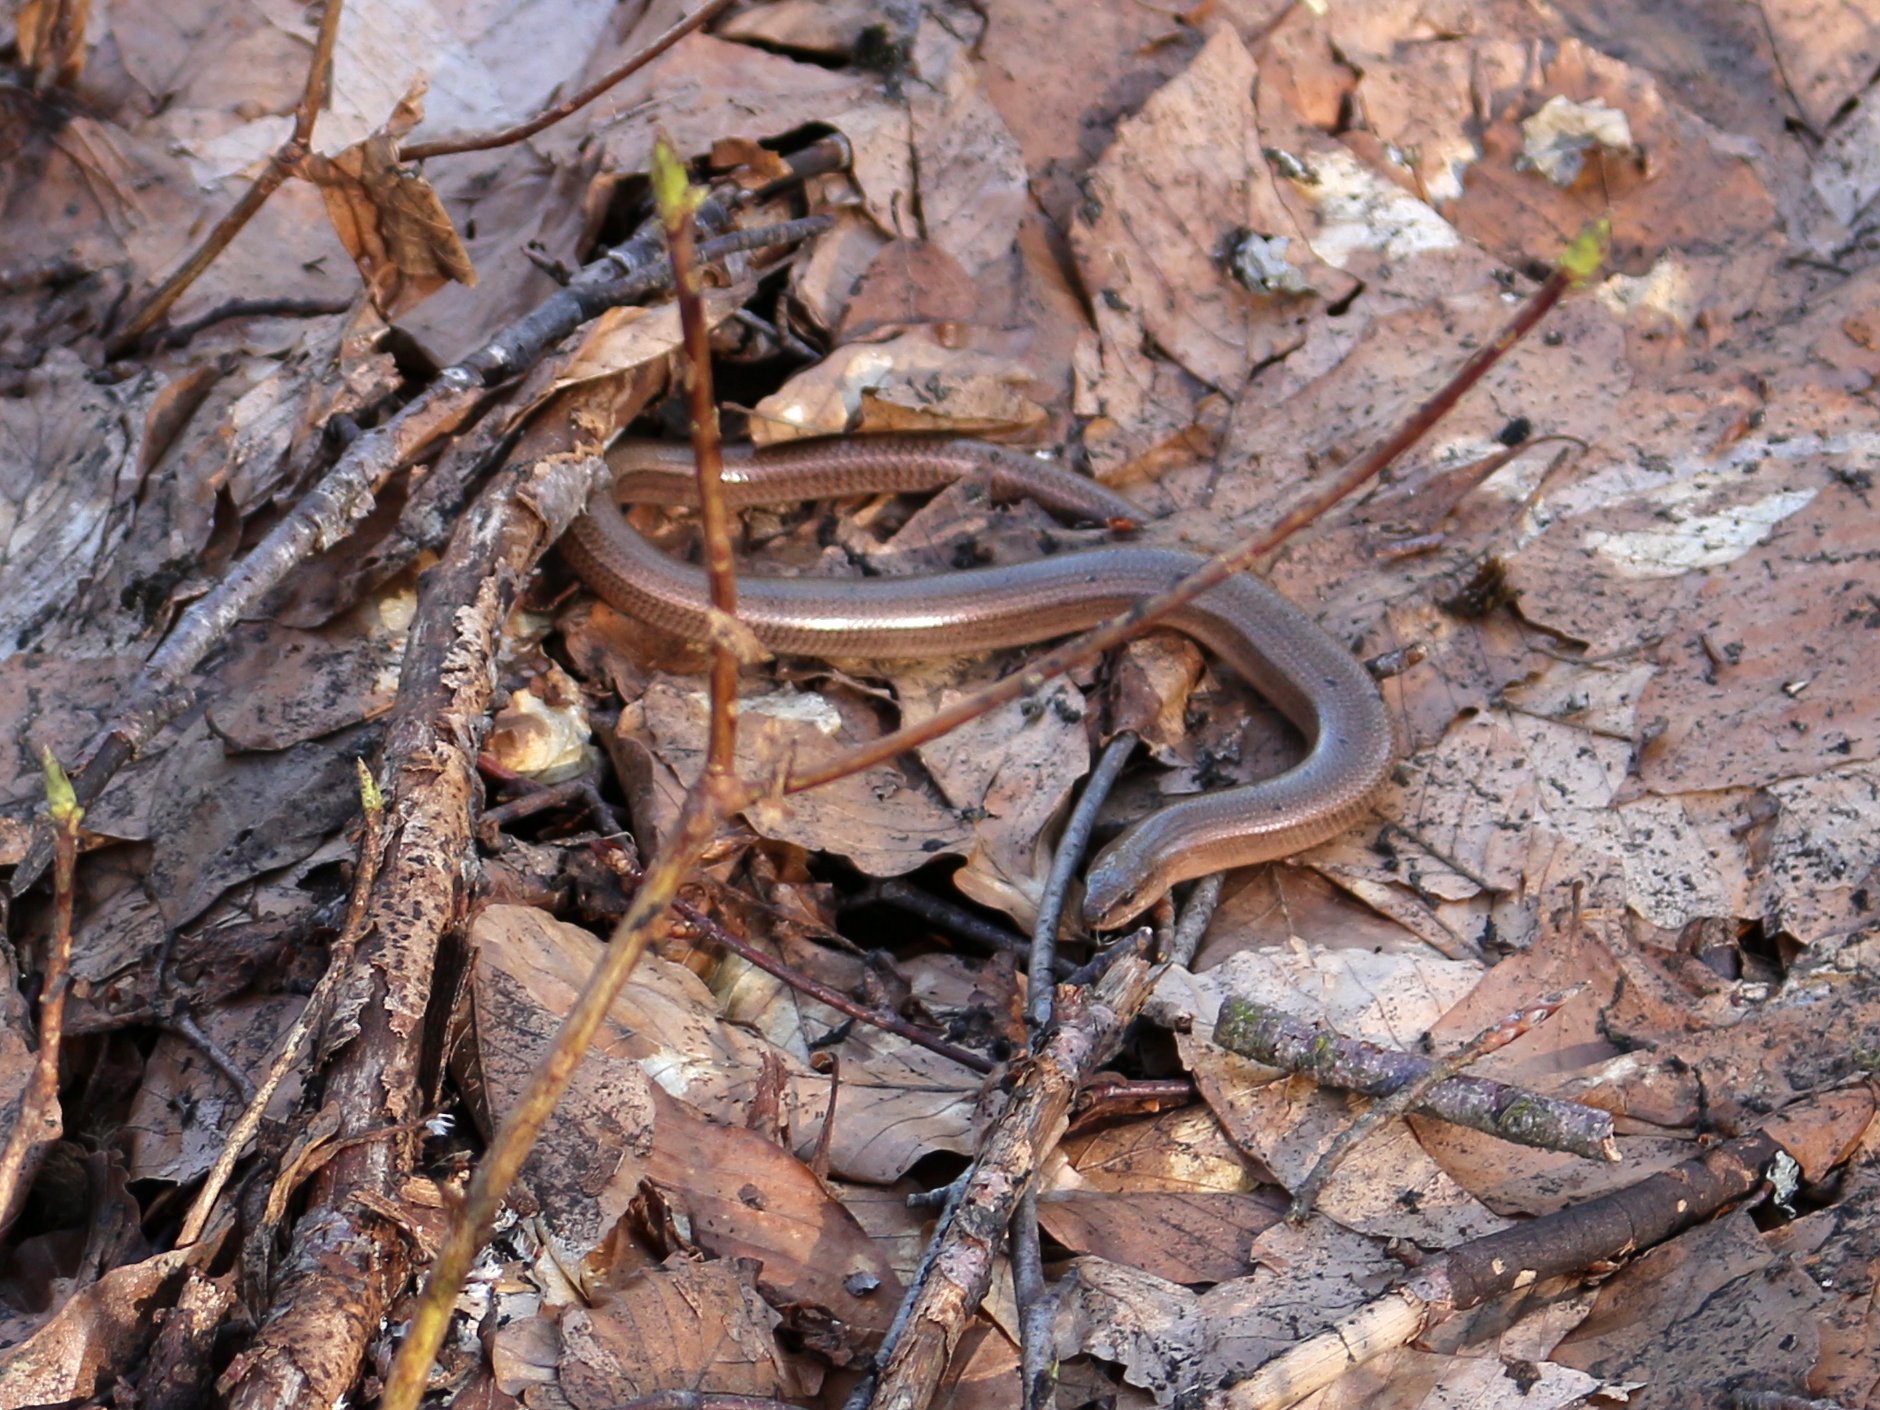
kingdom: Animalia
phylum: Chordata
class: Squamata
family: Anguidae
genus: Anguis
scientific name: Anguis colchica
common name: Slow worm
